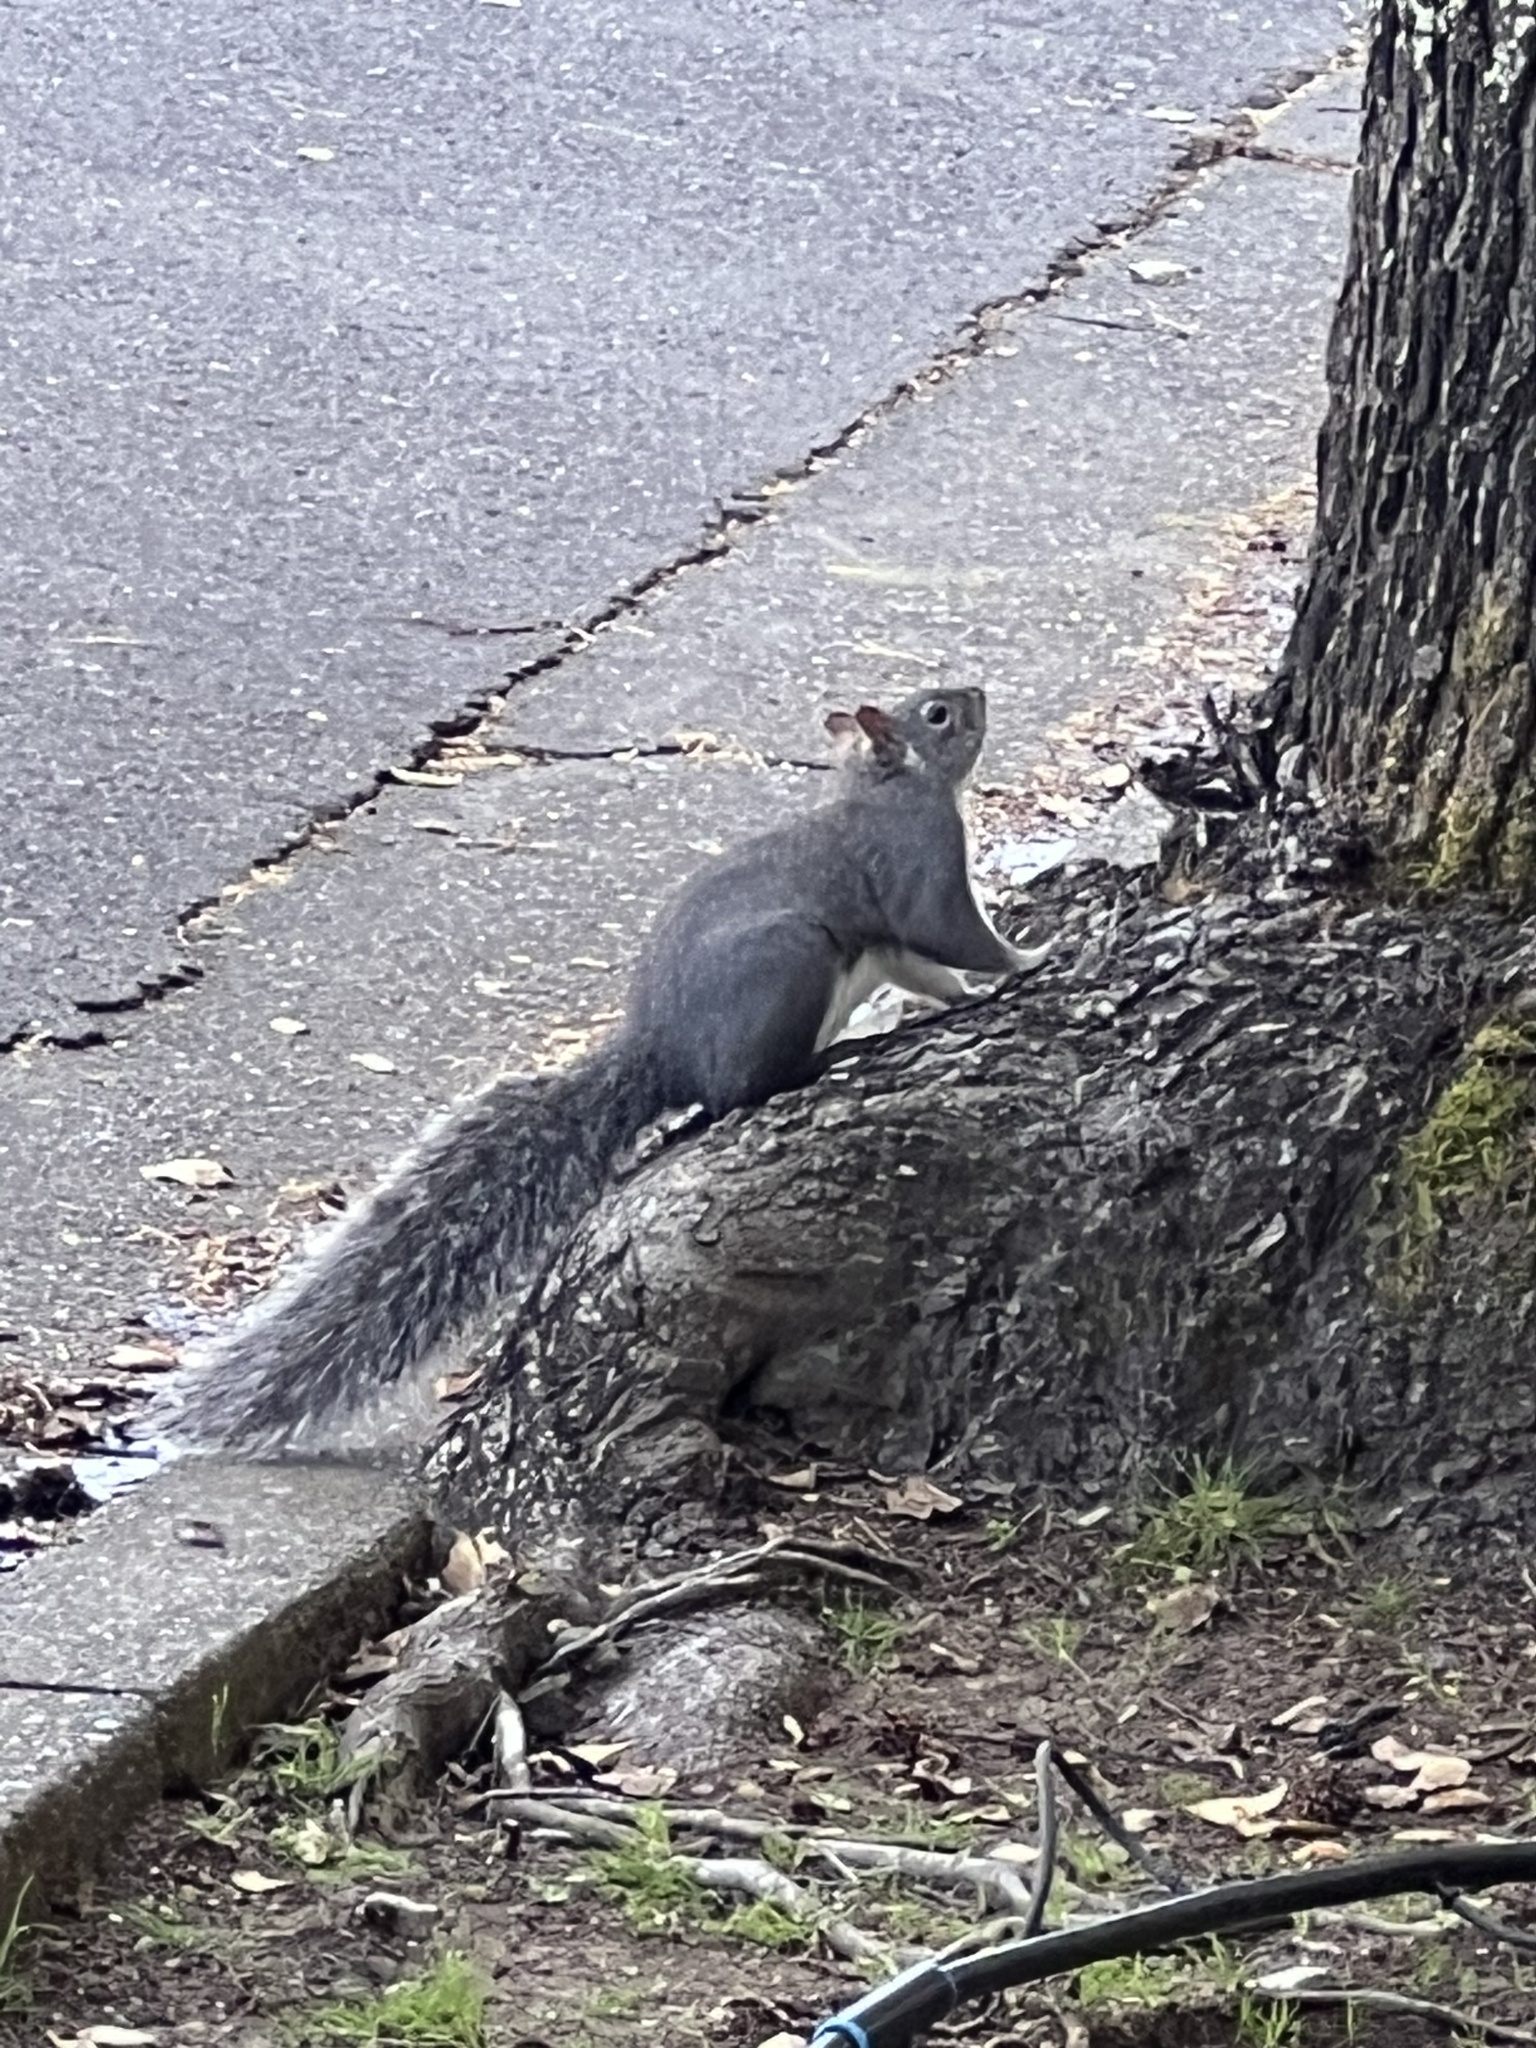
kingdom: Animalia
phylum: Chordata
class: Mammalia
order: Rodentia
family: Sciuridae
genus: Sciurus
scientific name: Sciurus griseus
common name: Western gray squirrel
